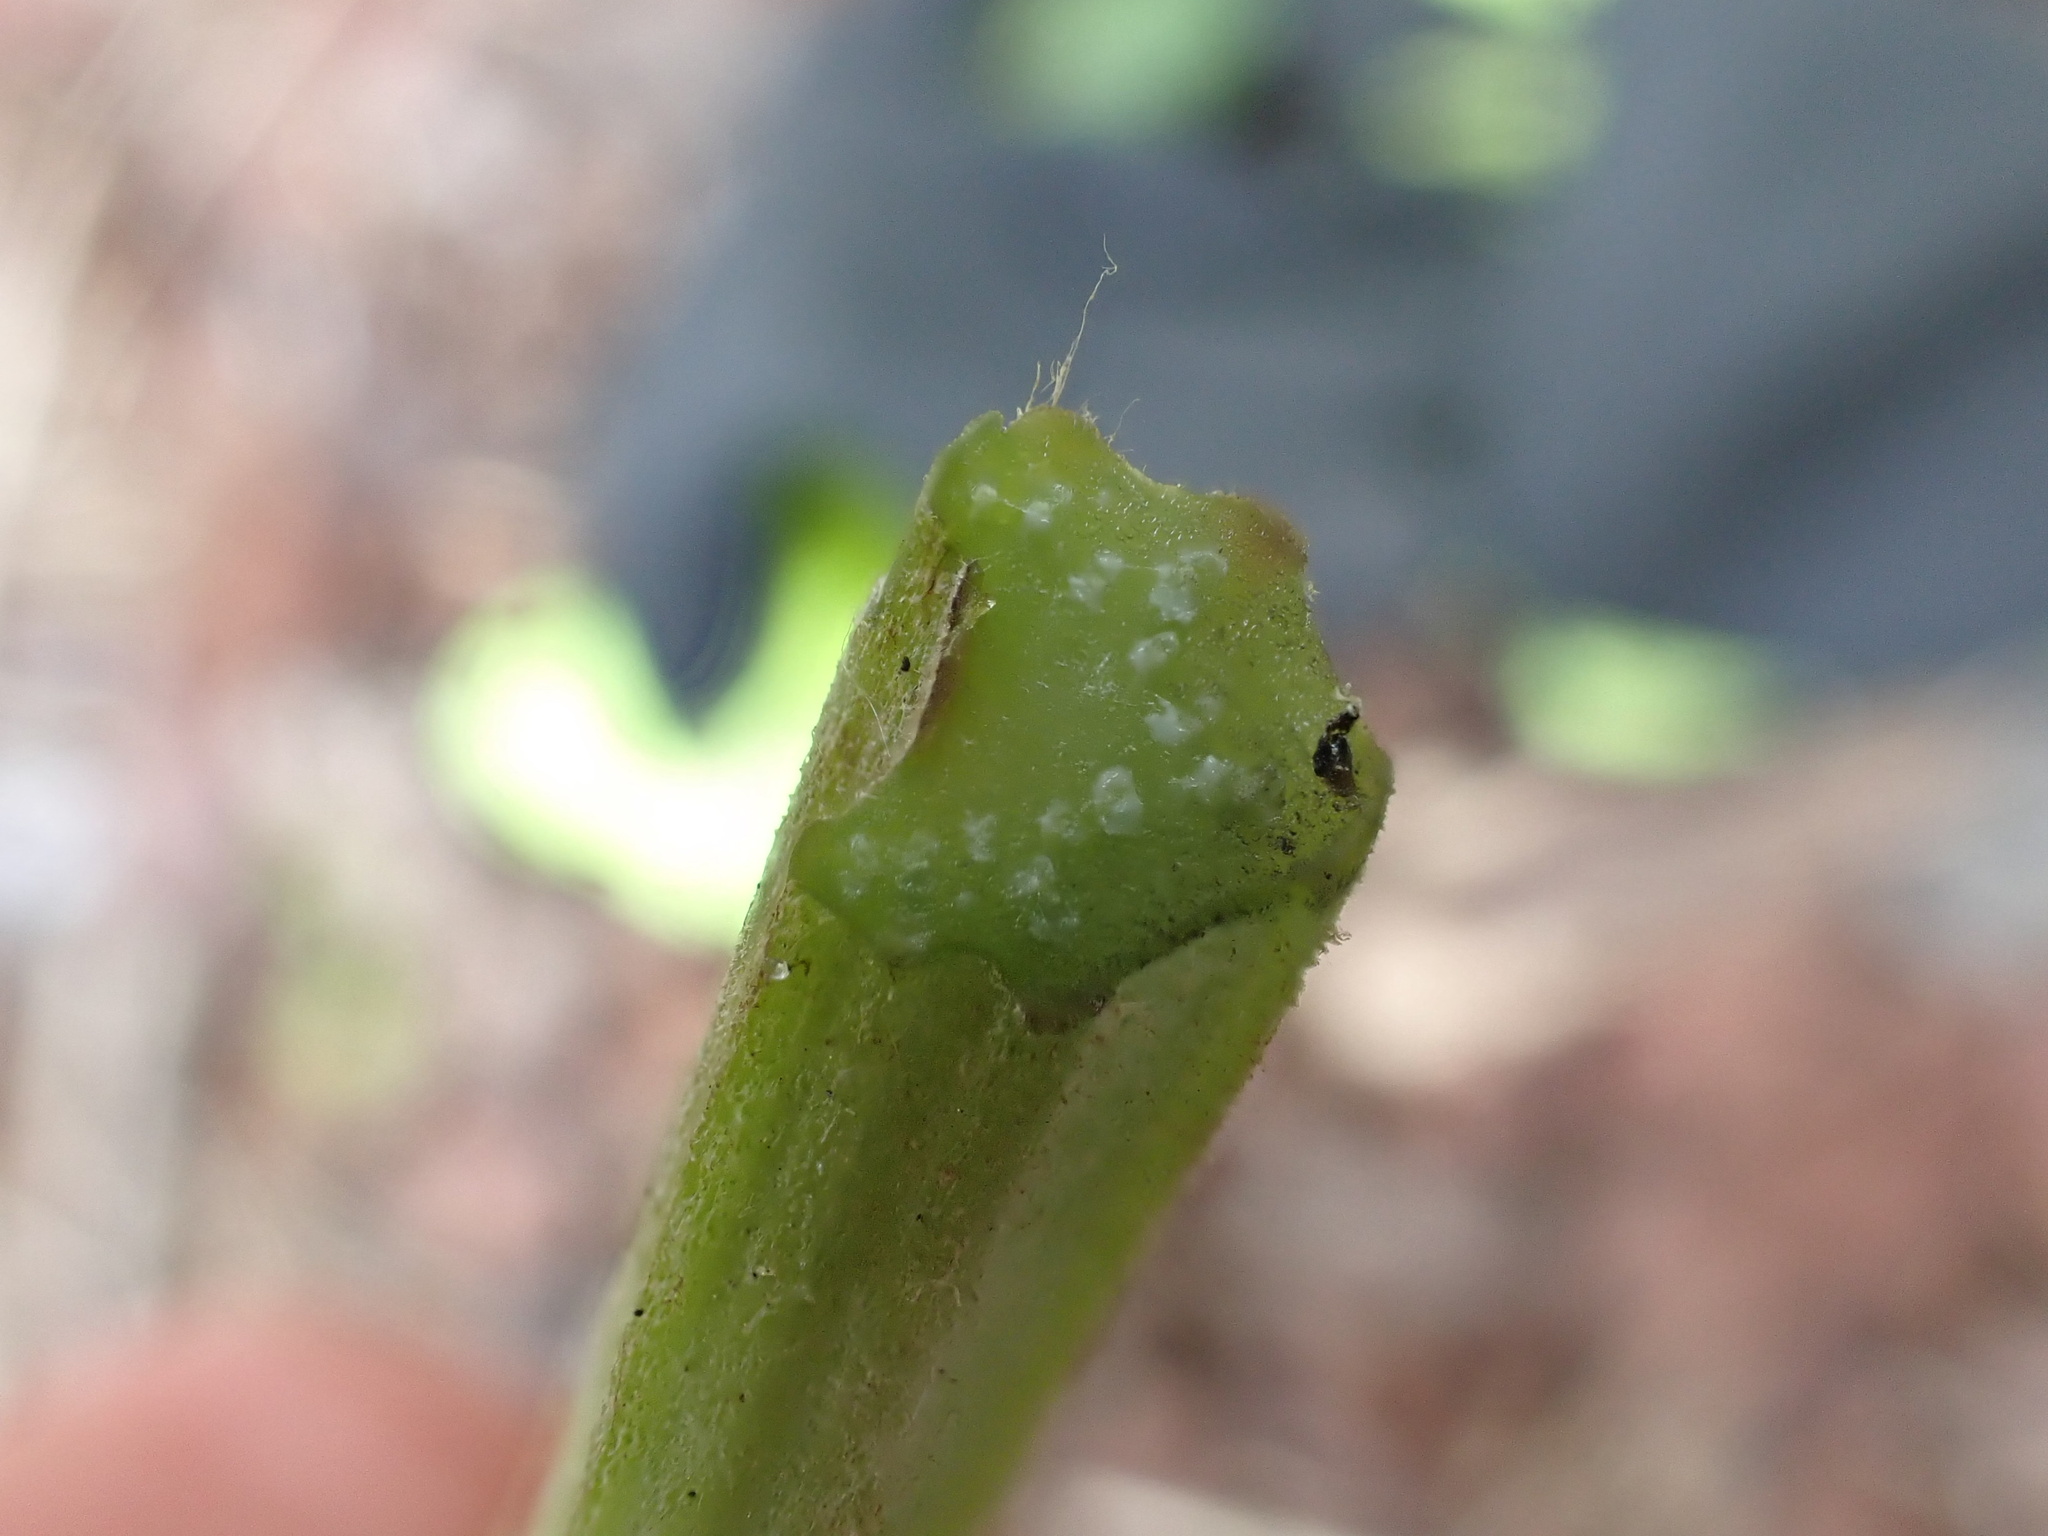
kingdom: Plantae
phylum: Tracheophyta
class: Magnoliopsida
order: Asterales
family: Asteraceae
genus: Arctium
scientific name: Arctium lappa
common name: Greater burdock
